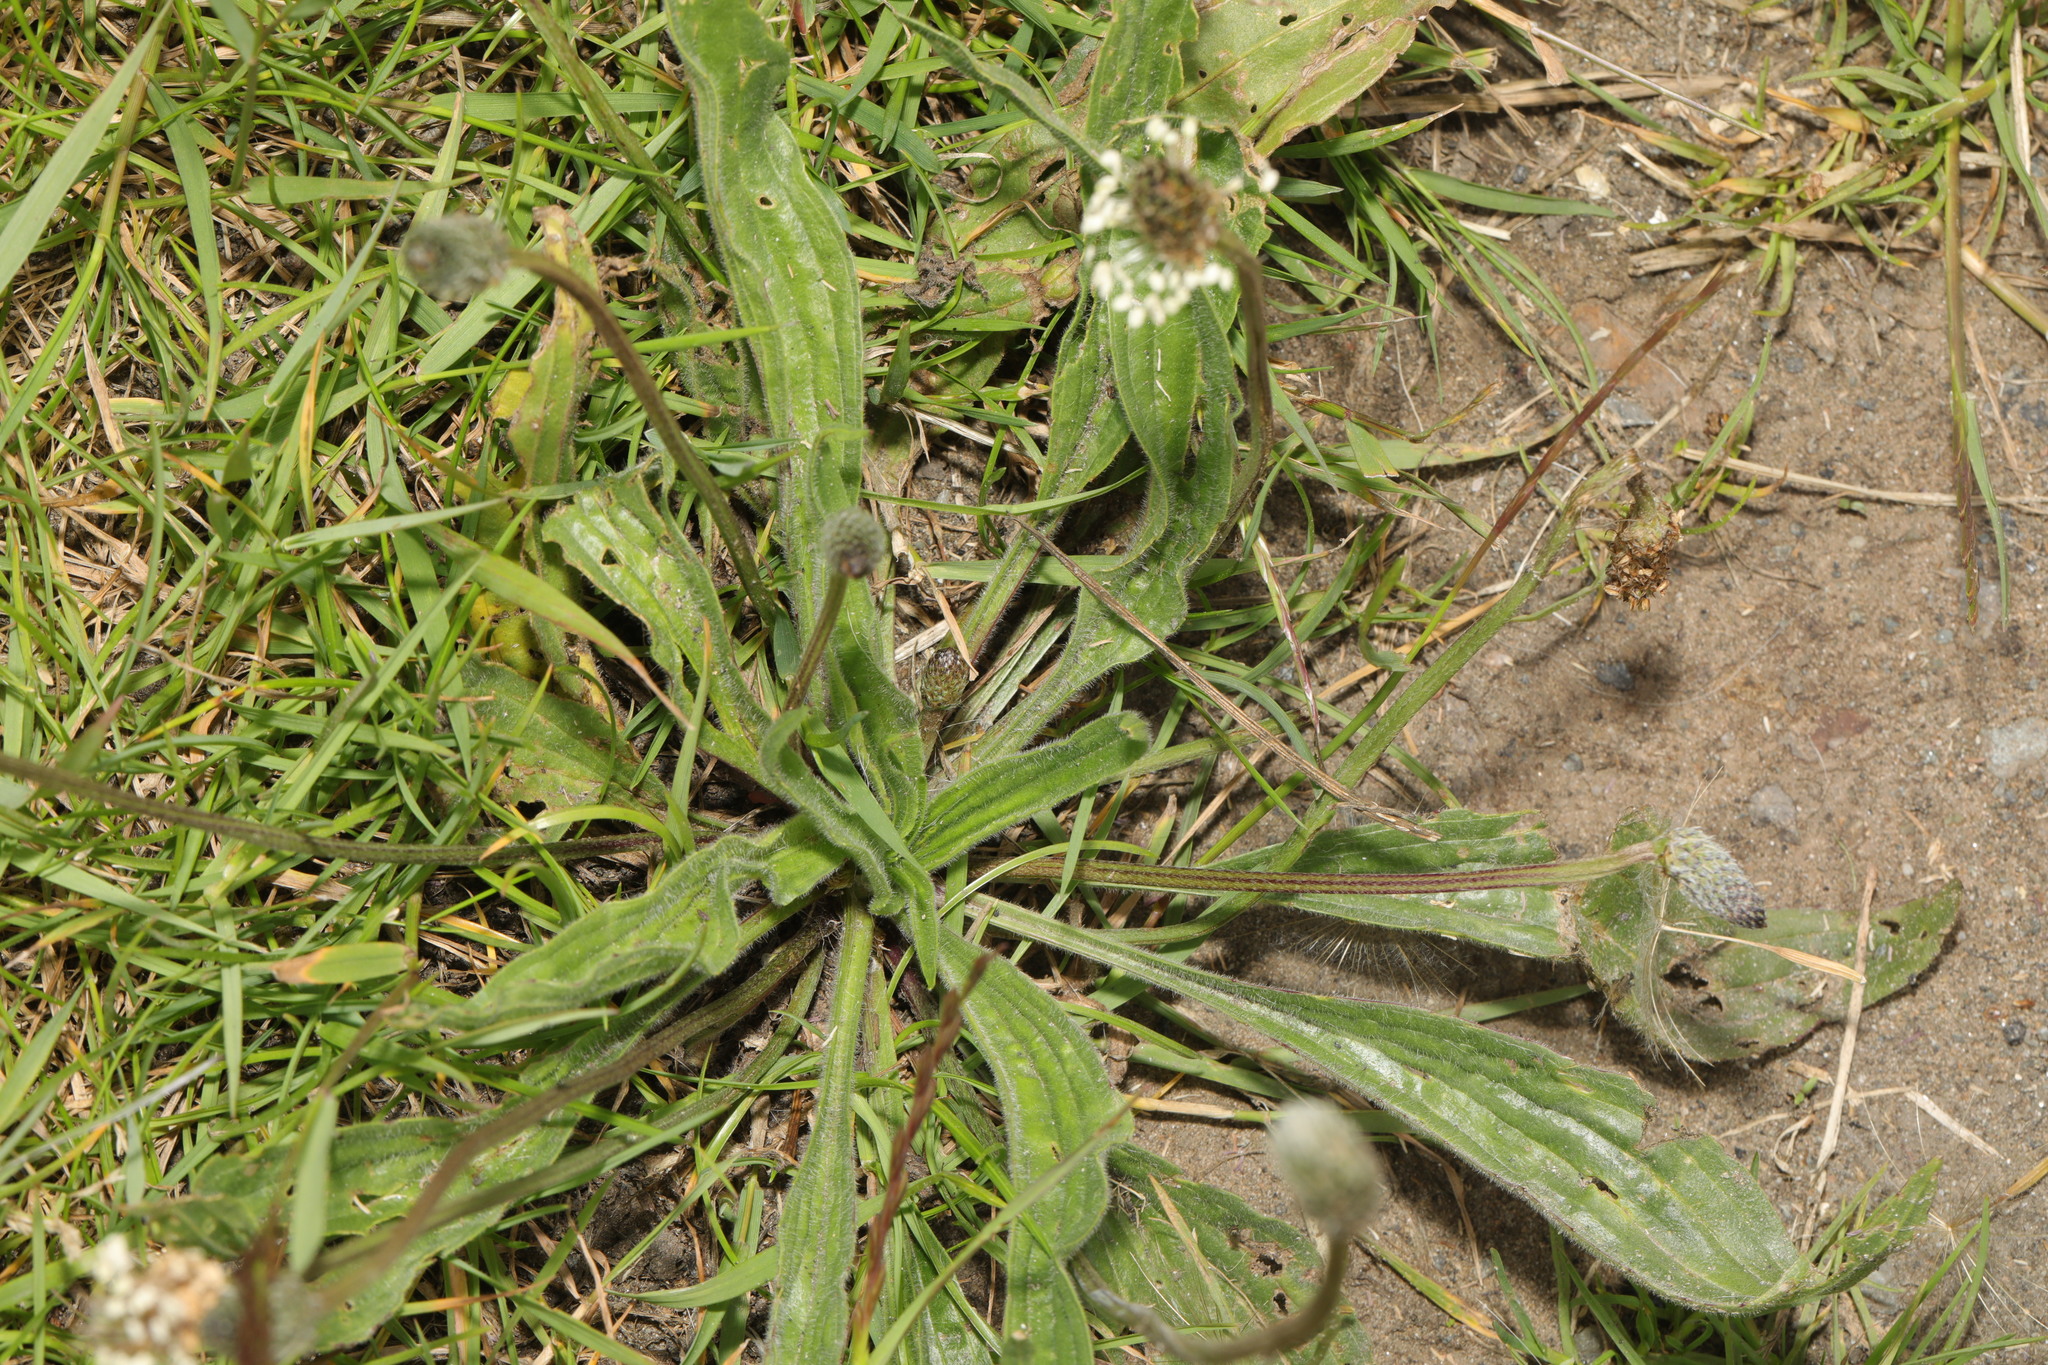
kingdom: Plantae
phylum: Tracheophyta
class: Magnoliopsida
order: Lamiales
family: Plantaginaceae
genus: Plantago
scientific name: Plantago lanceolata
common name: Ribwort plantain
